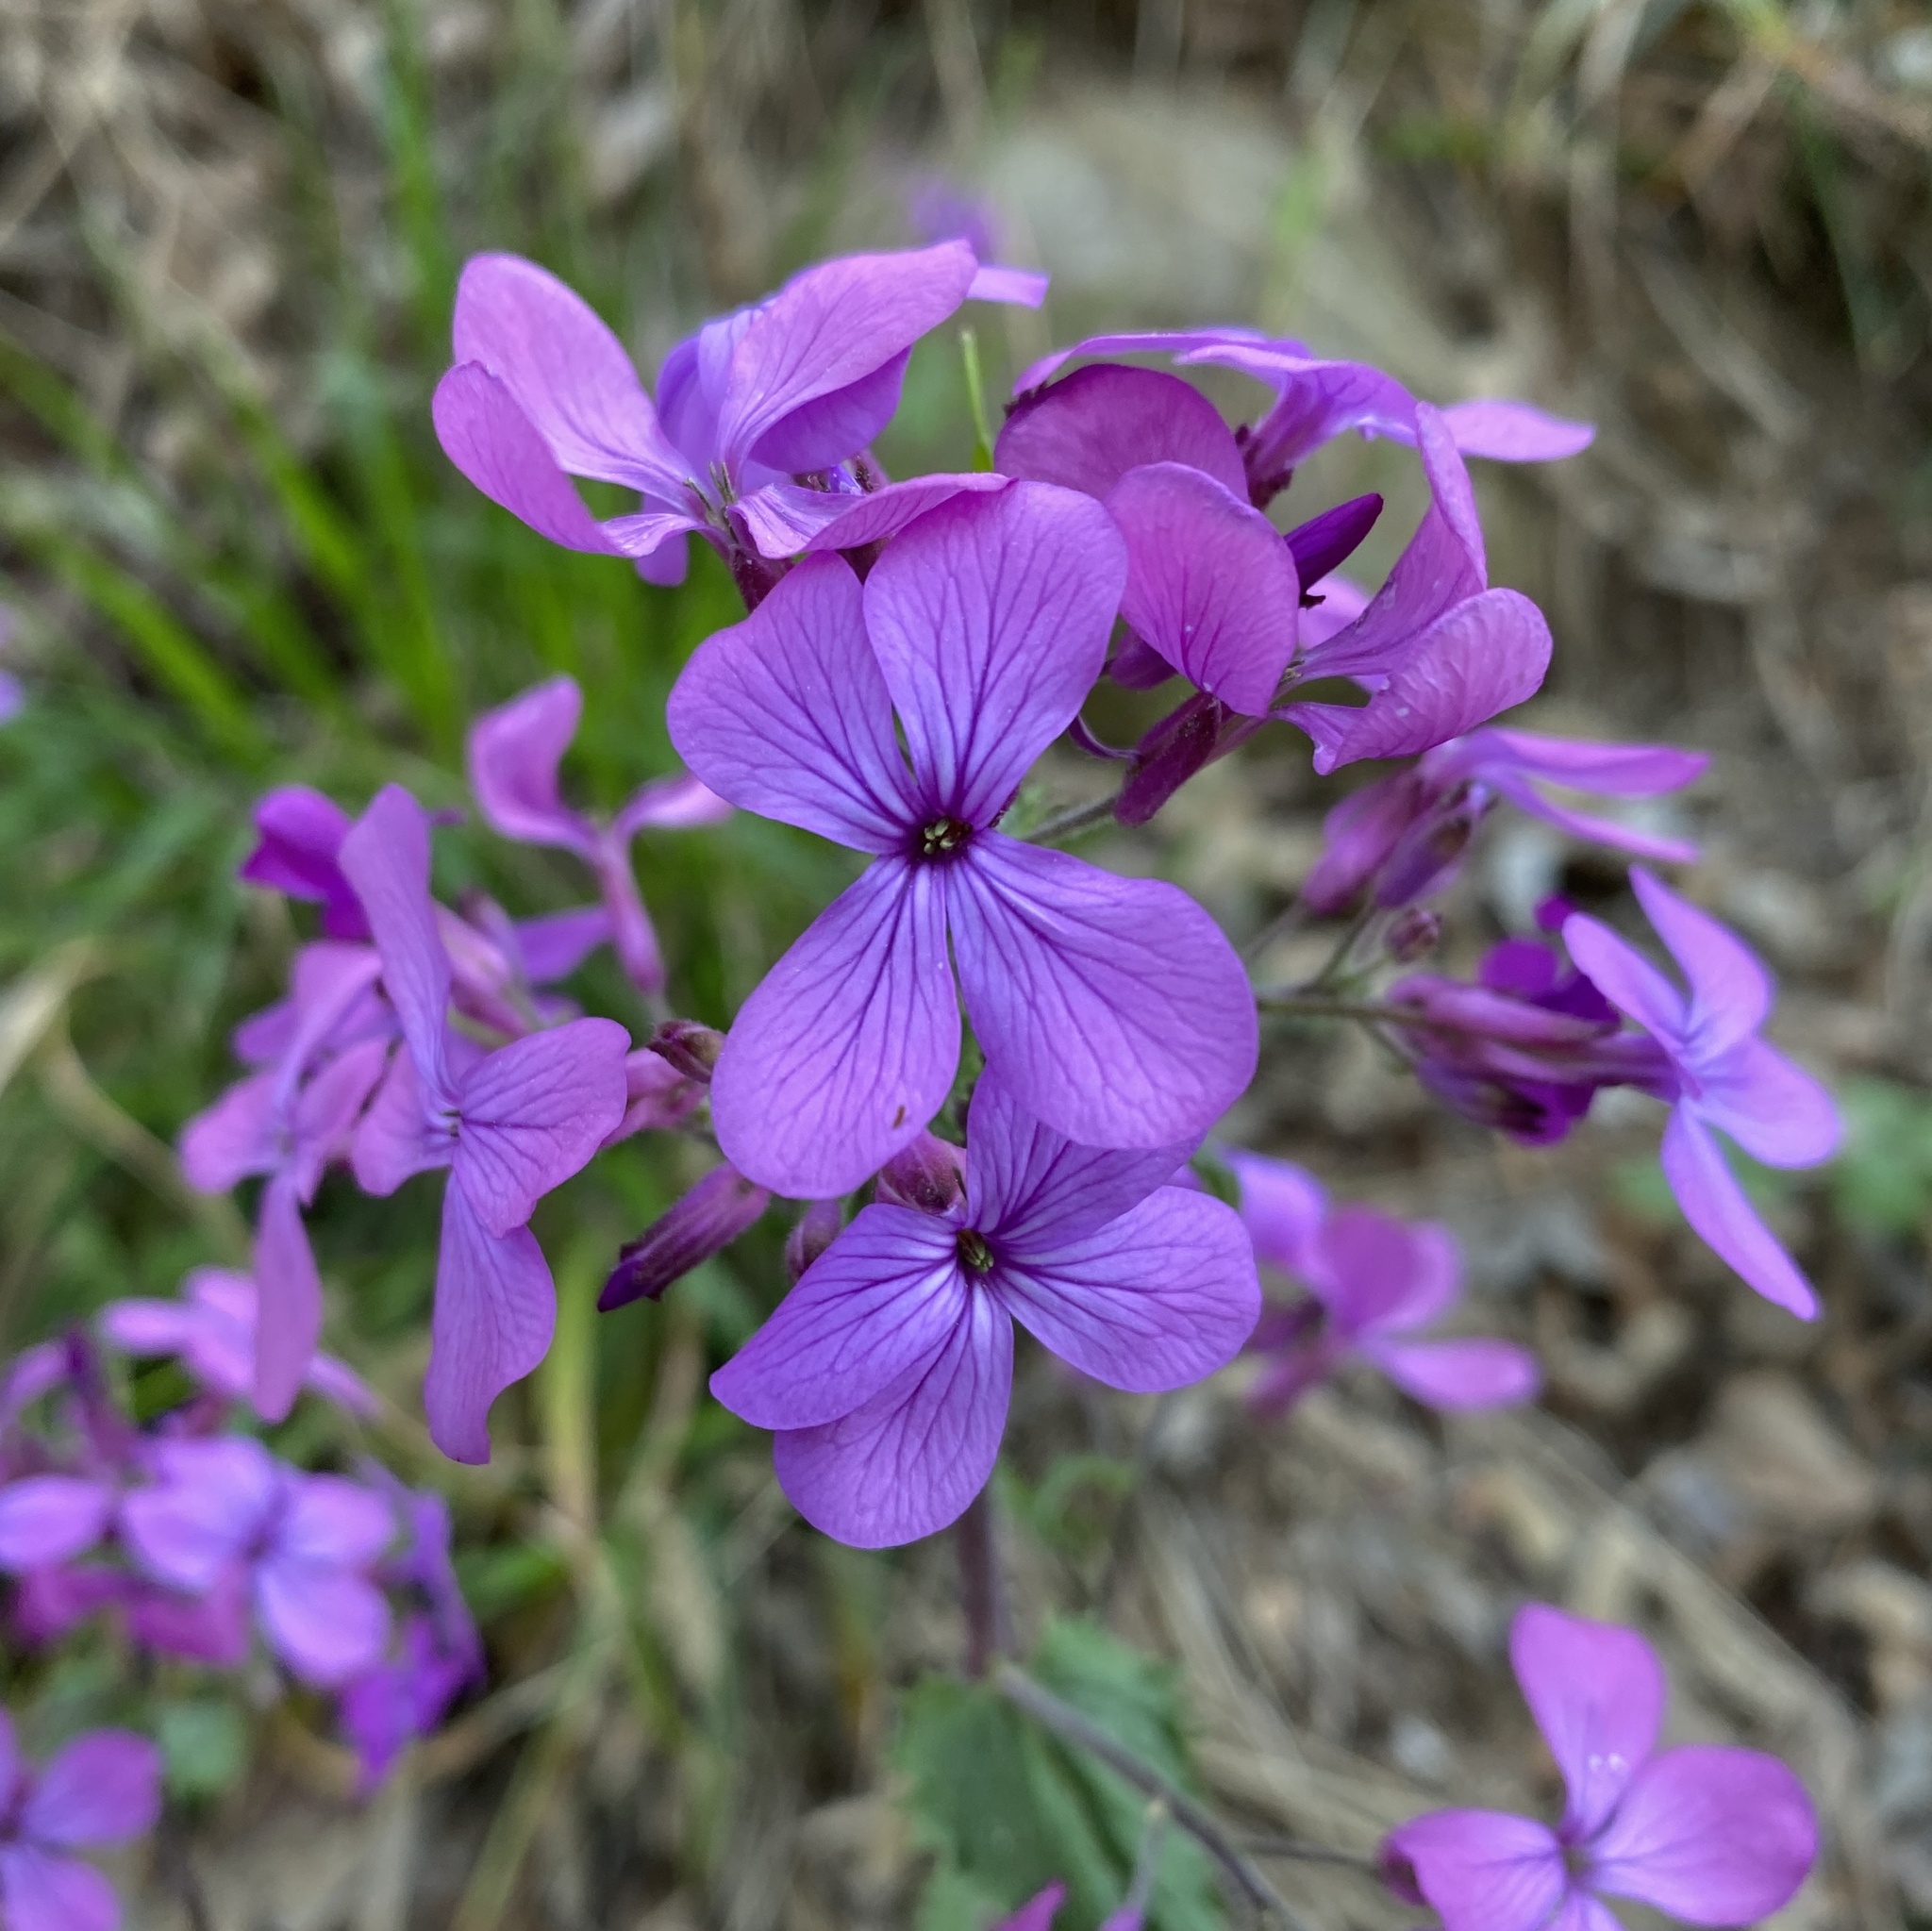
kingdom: Plantae
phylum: Tracheophyta
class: Magnoliopsida
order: Brassicales
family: Brassicaceae
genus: Lunaria
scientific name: Lunaria annua
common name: Honesty
